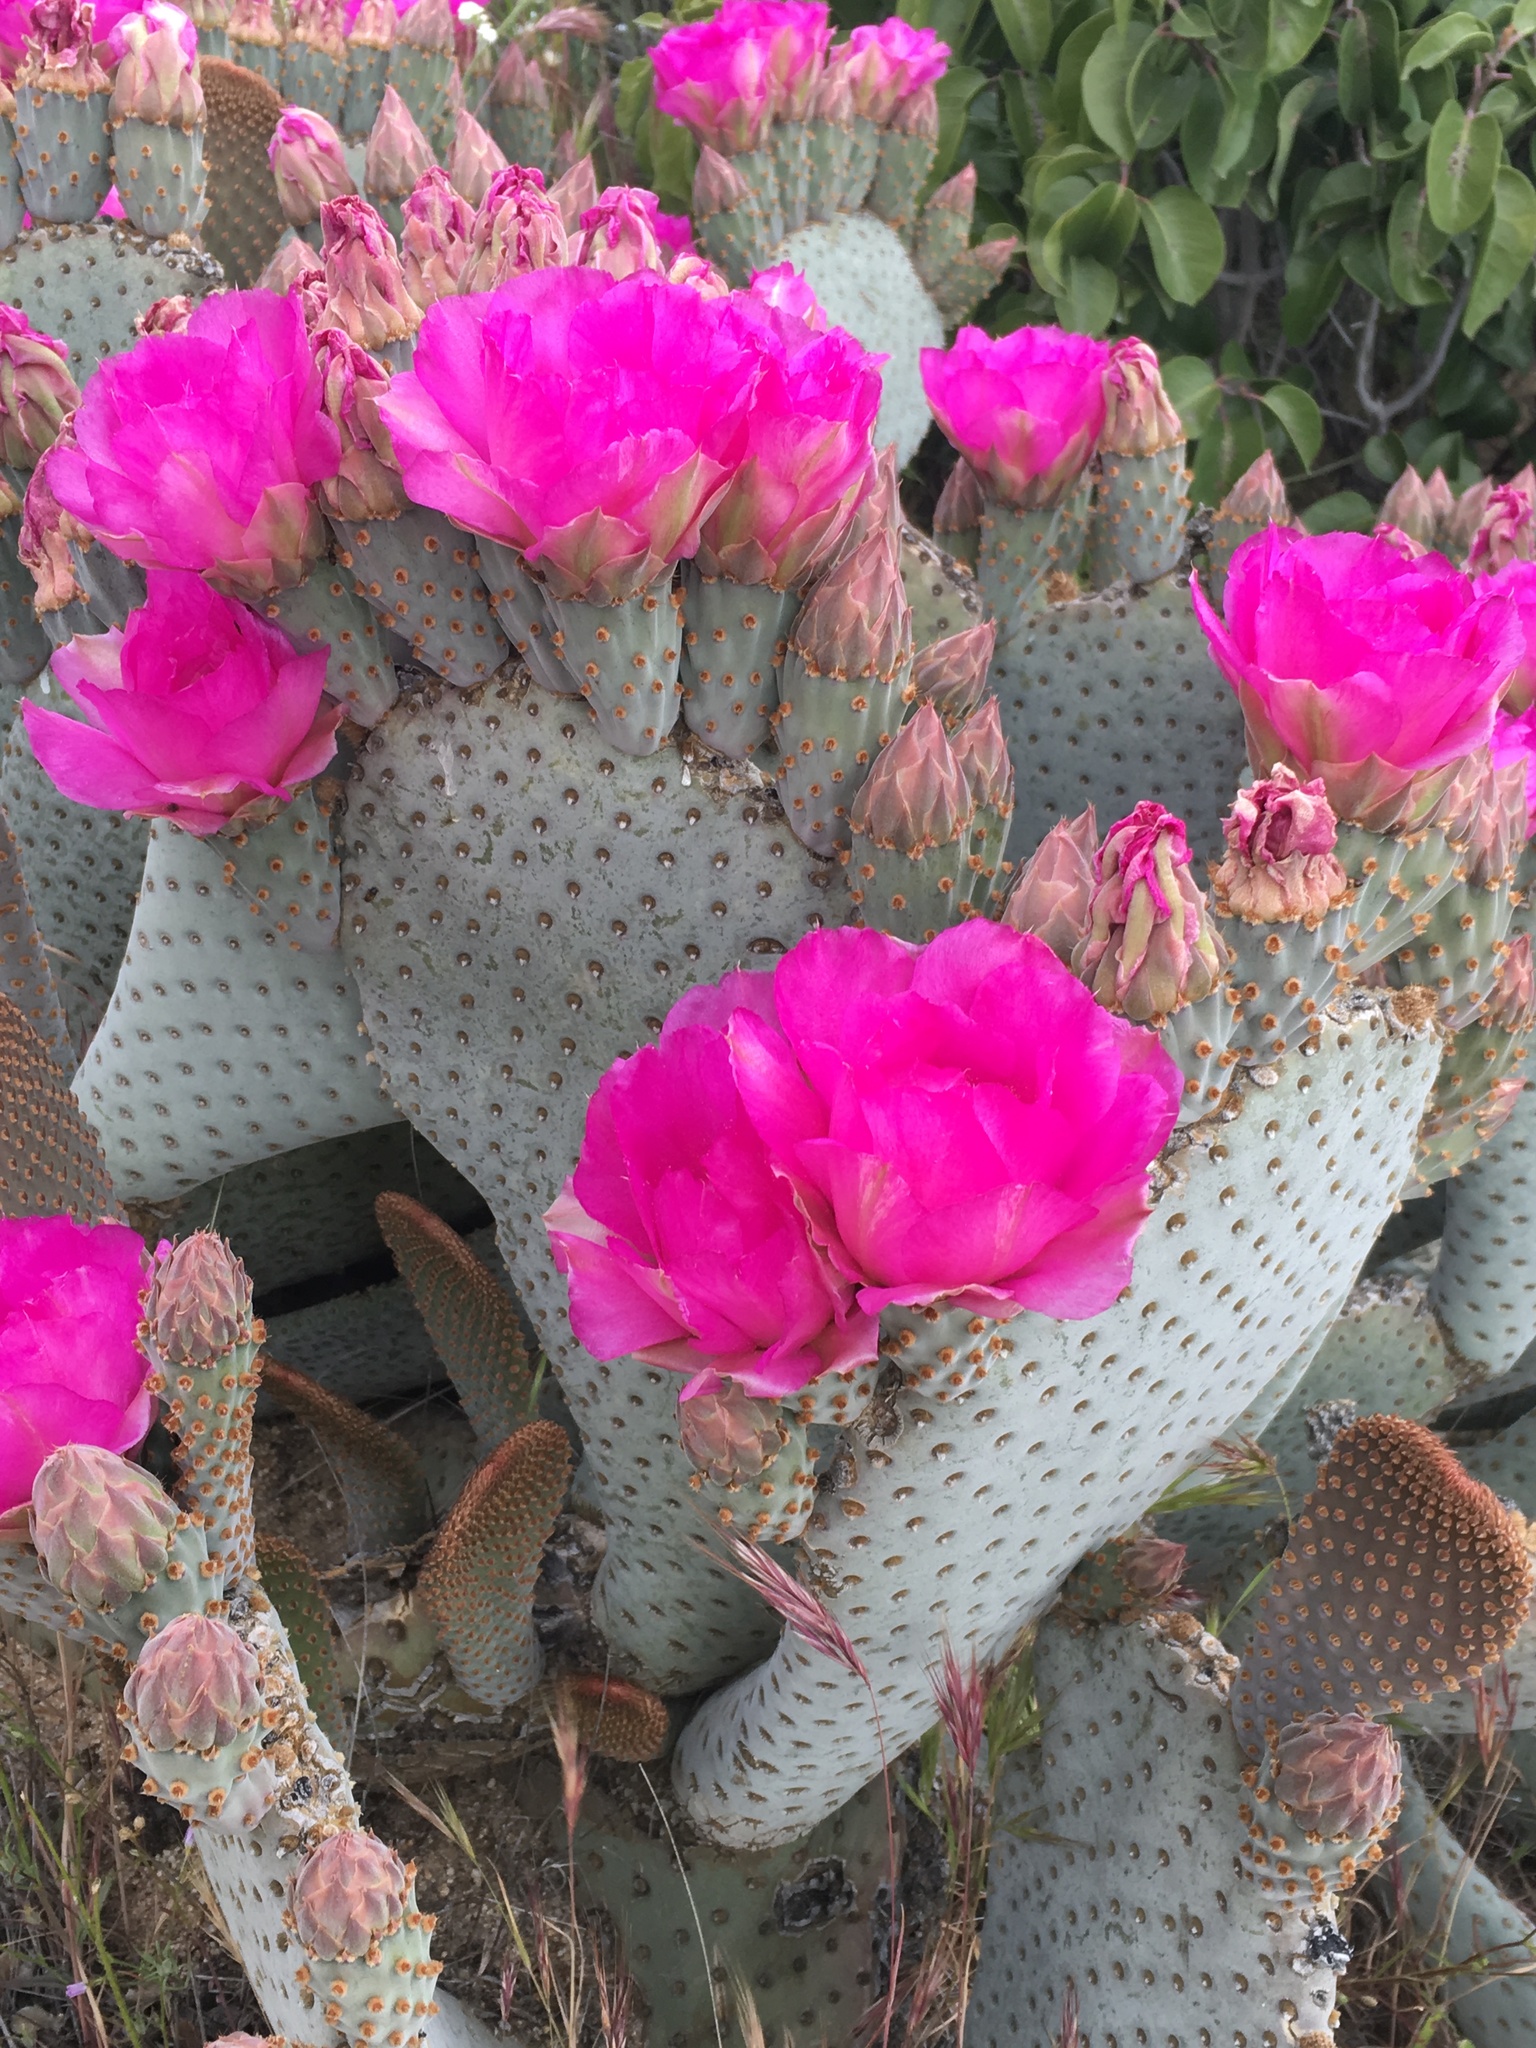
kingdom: Plantae
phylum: Tracheophyta
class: Magnoliopsida
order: Caryophyllales
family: Cactaceae
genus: Opuntia
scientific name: Opuntia basilaris
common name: Beavertail prickly-pear
